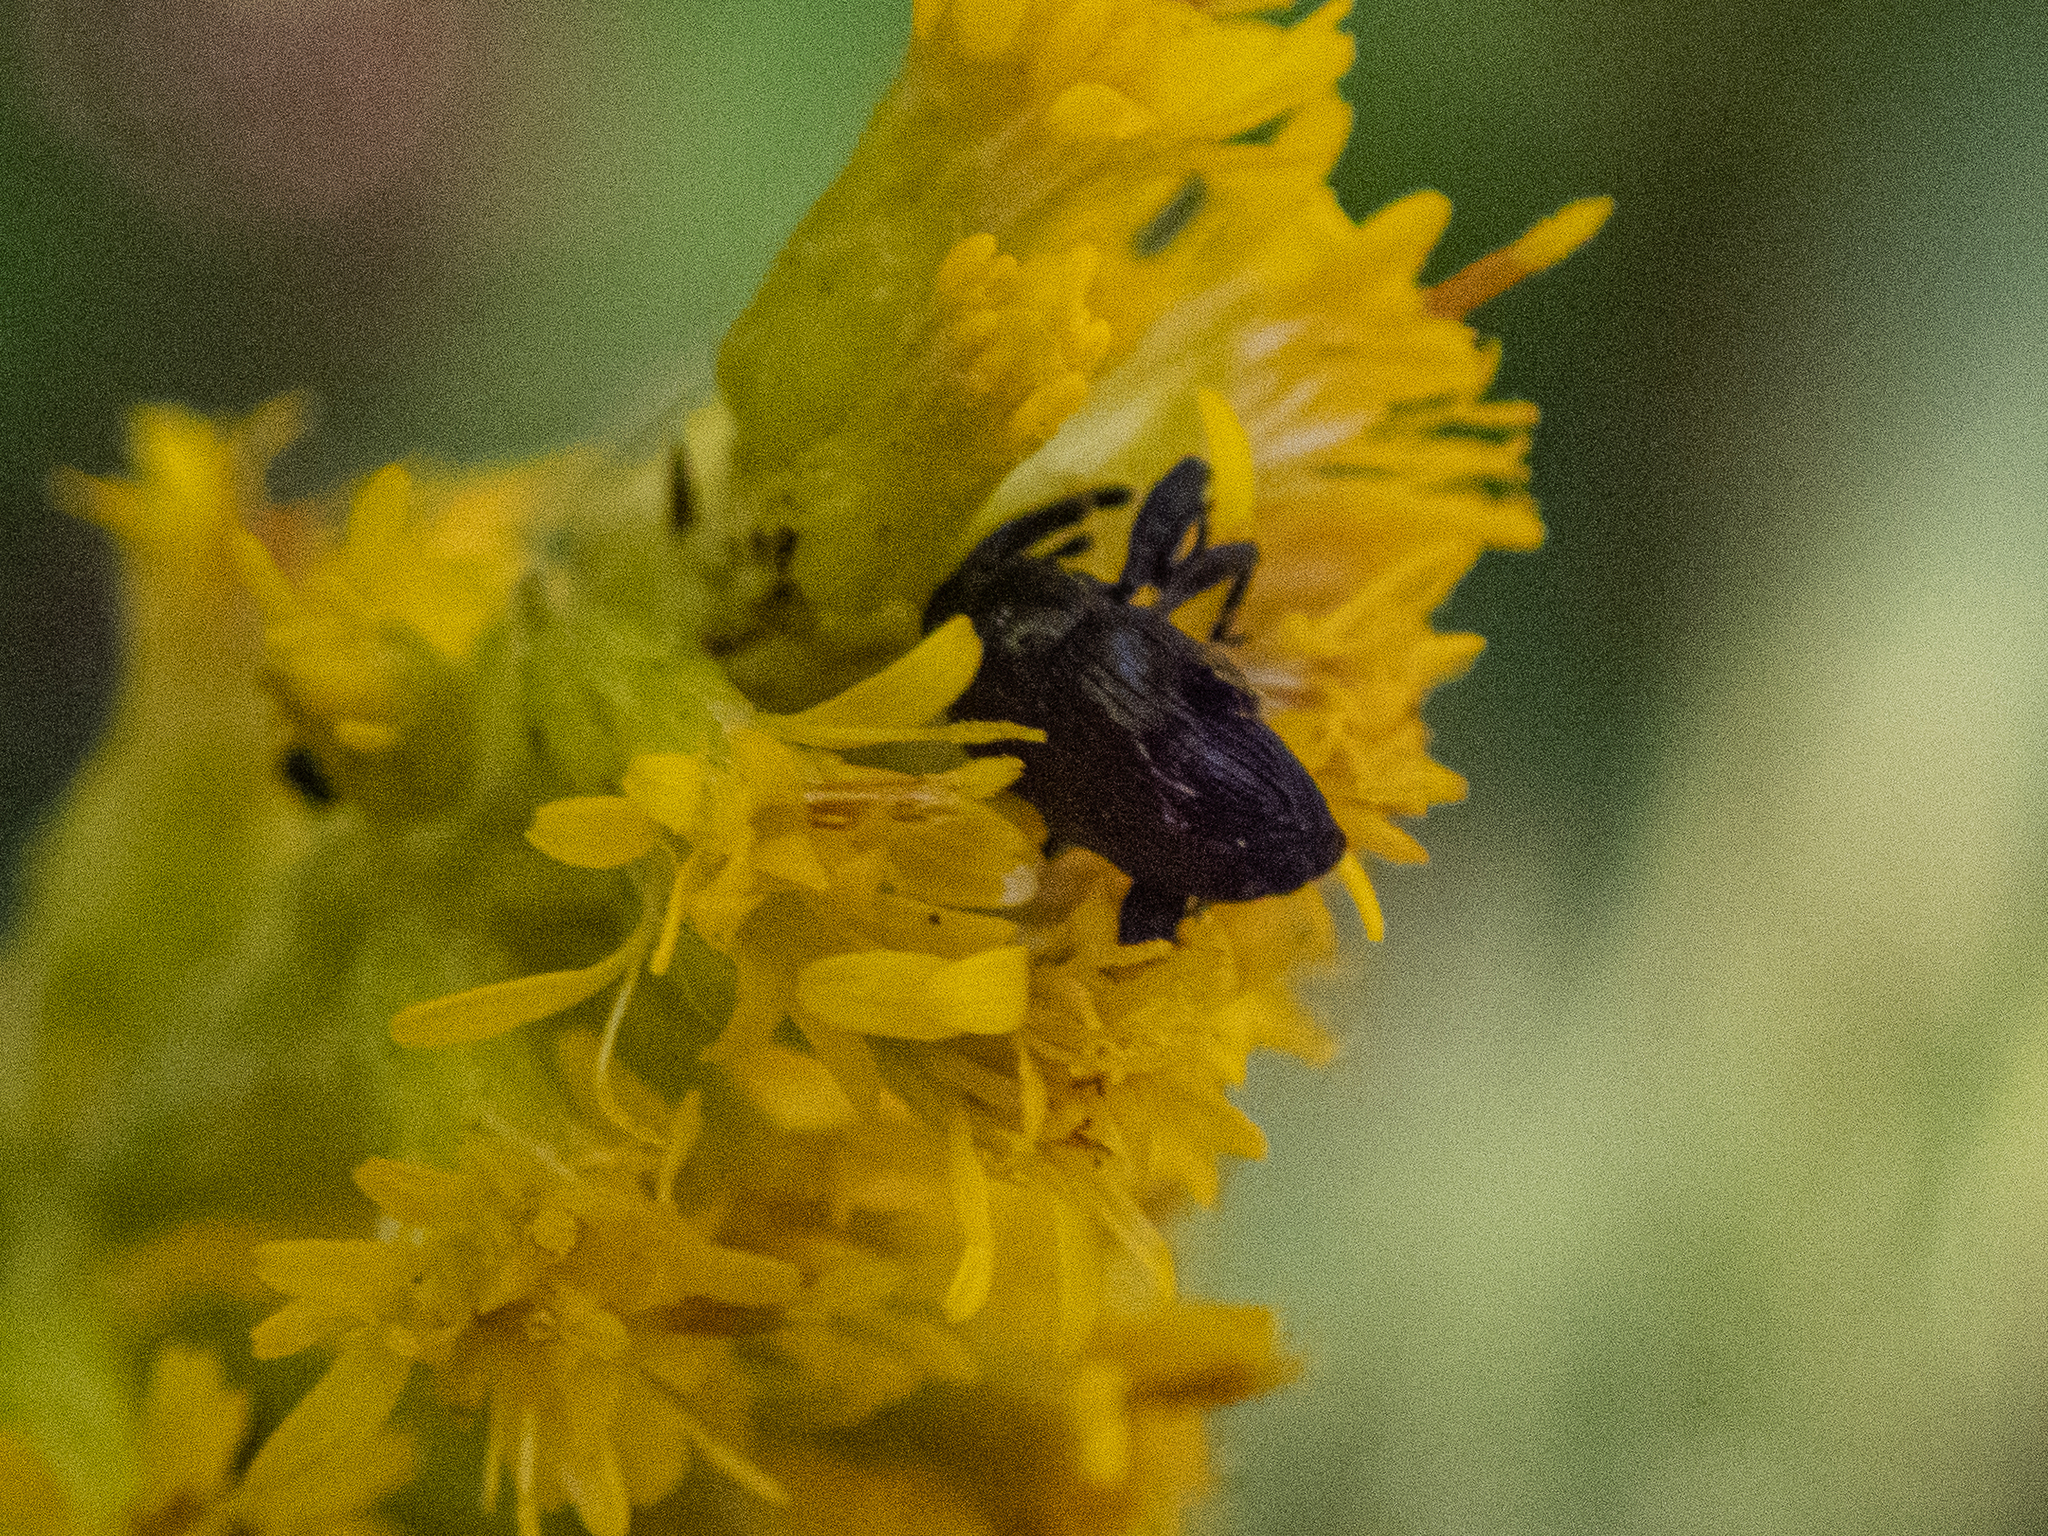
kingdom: Animalia
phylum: Arthropoda
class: Insecta
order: Coleoptera
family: Curculionidae
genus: Madarellus
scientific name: Madarellus undulatus
